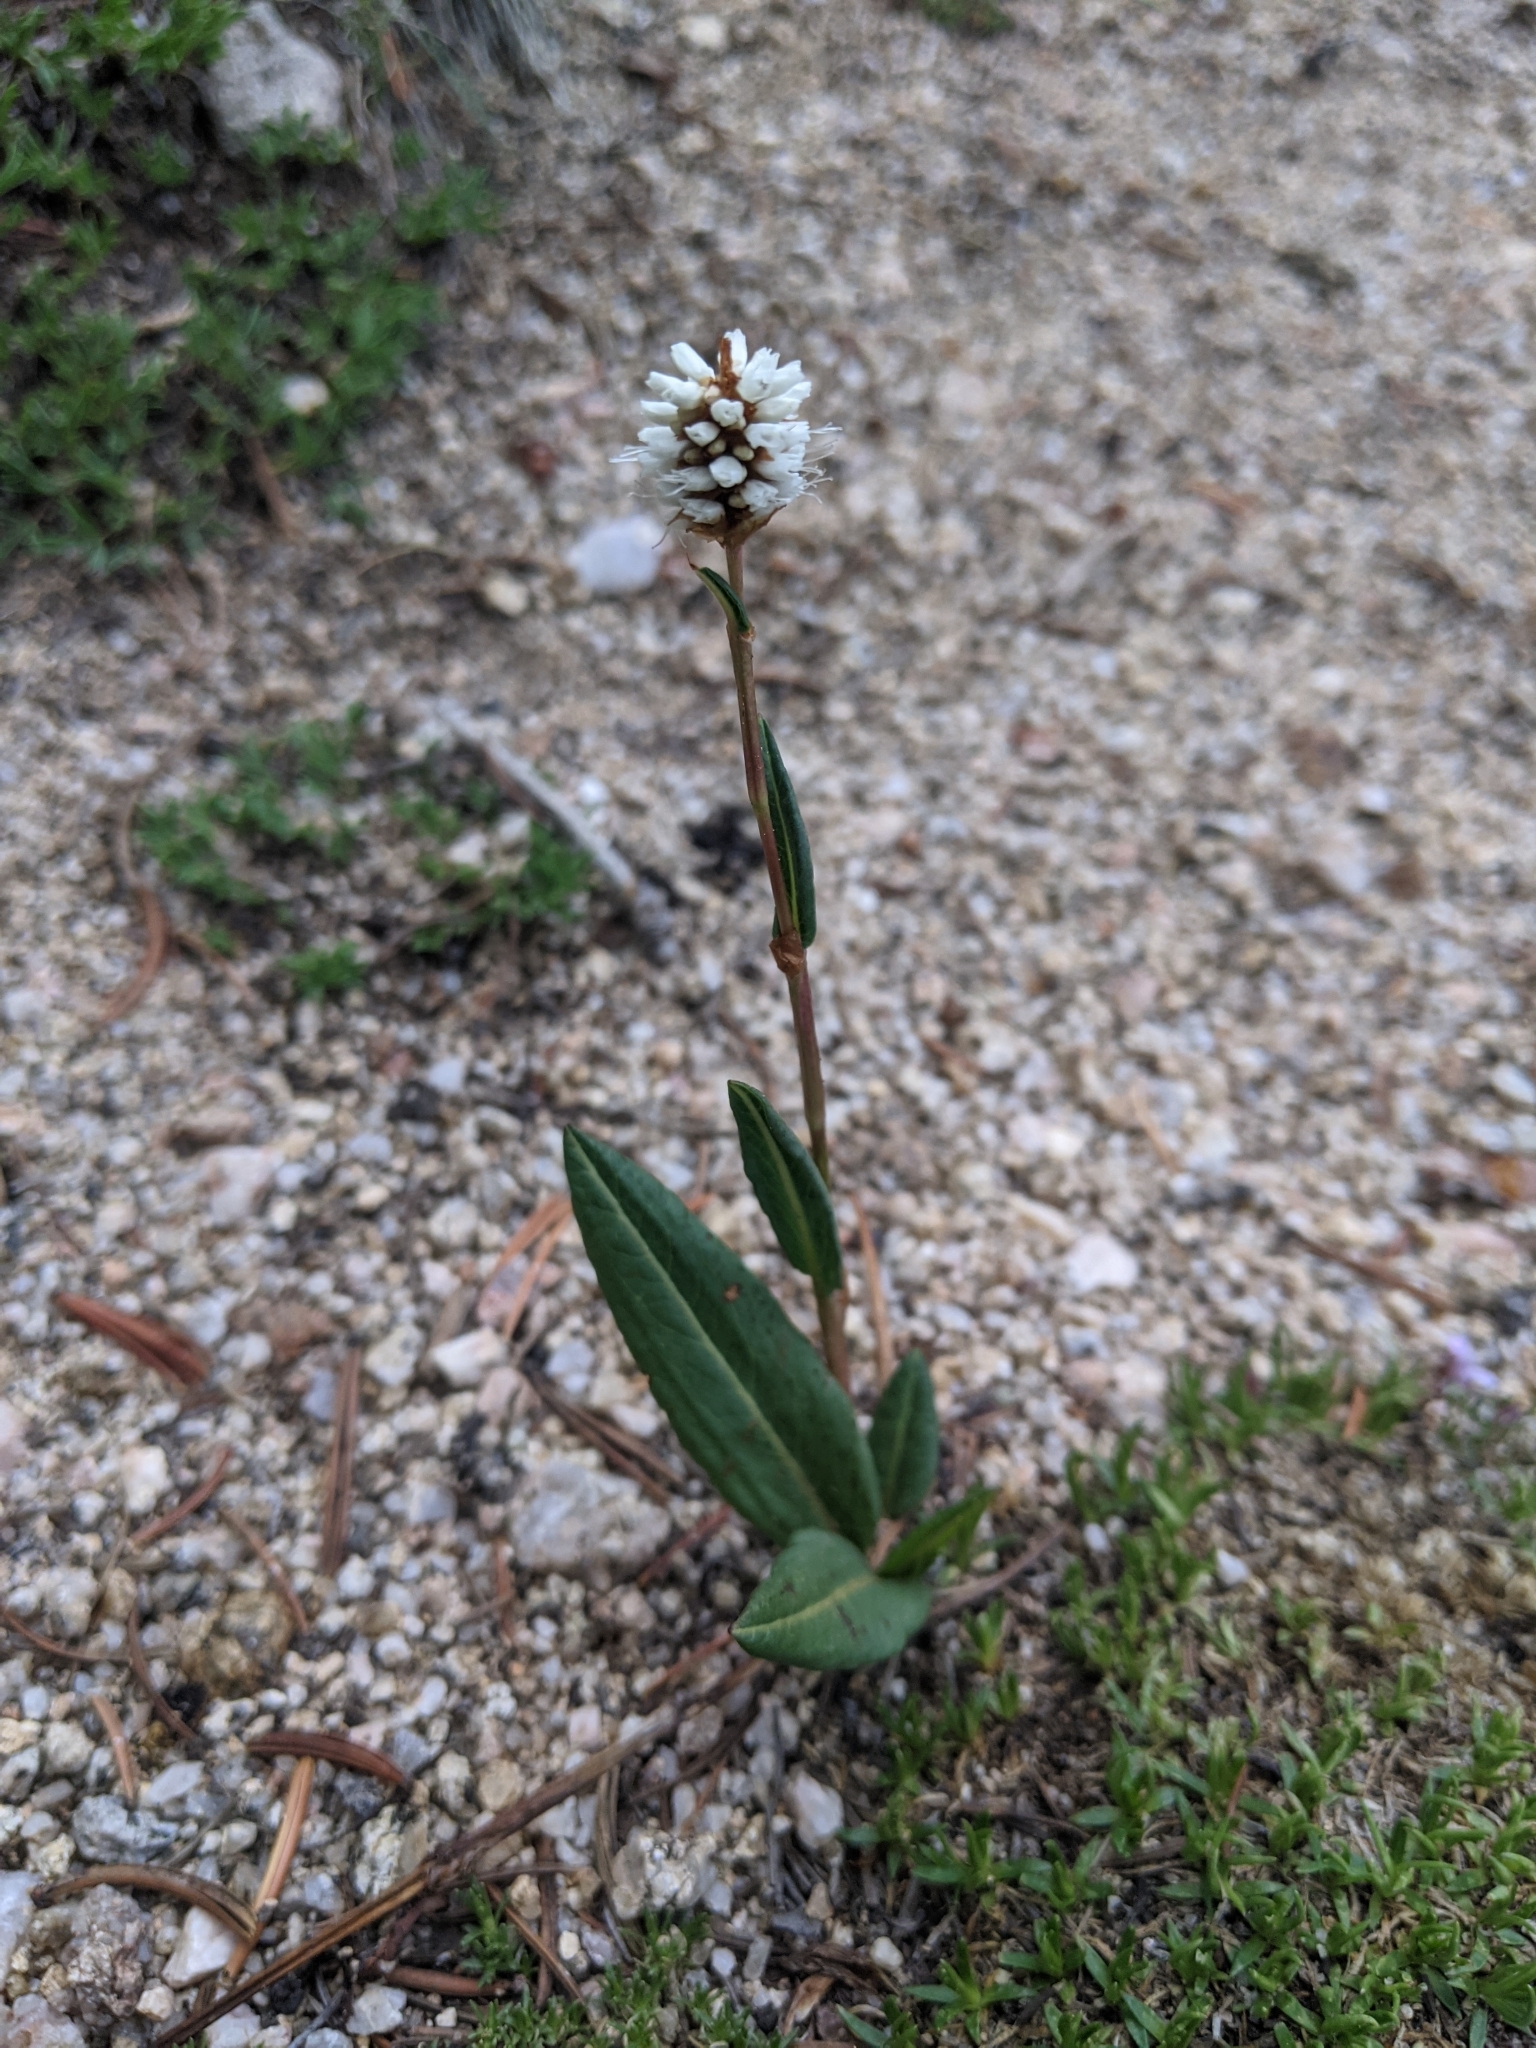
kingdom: Plantae
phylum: Tracheophyta
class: Magnoliopsida
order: Caryophyllales
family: Polygonaceae
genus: Bistorta
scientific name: Bistorta bistortoides
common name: American bistort
